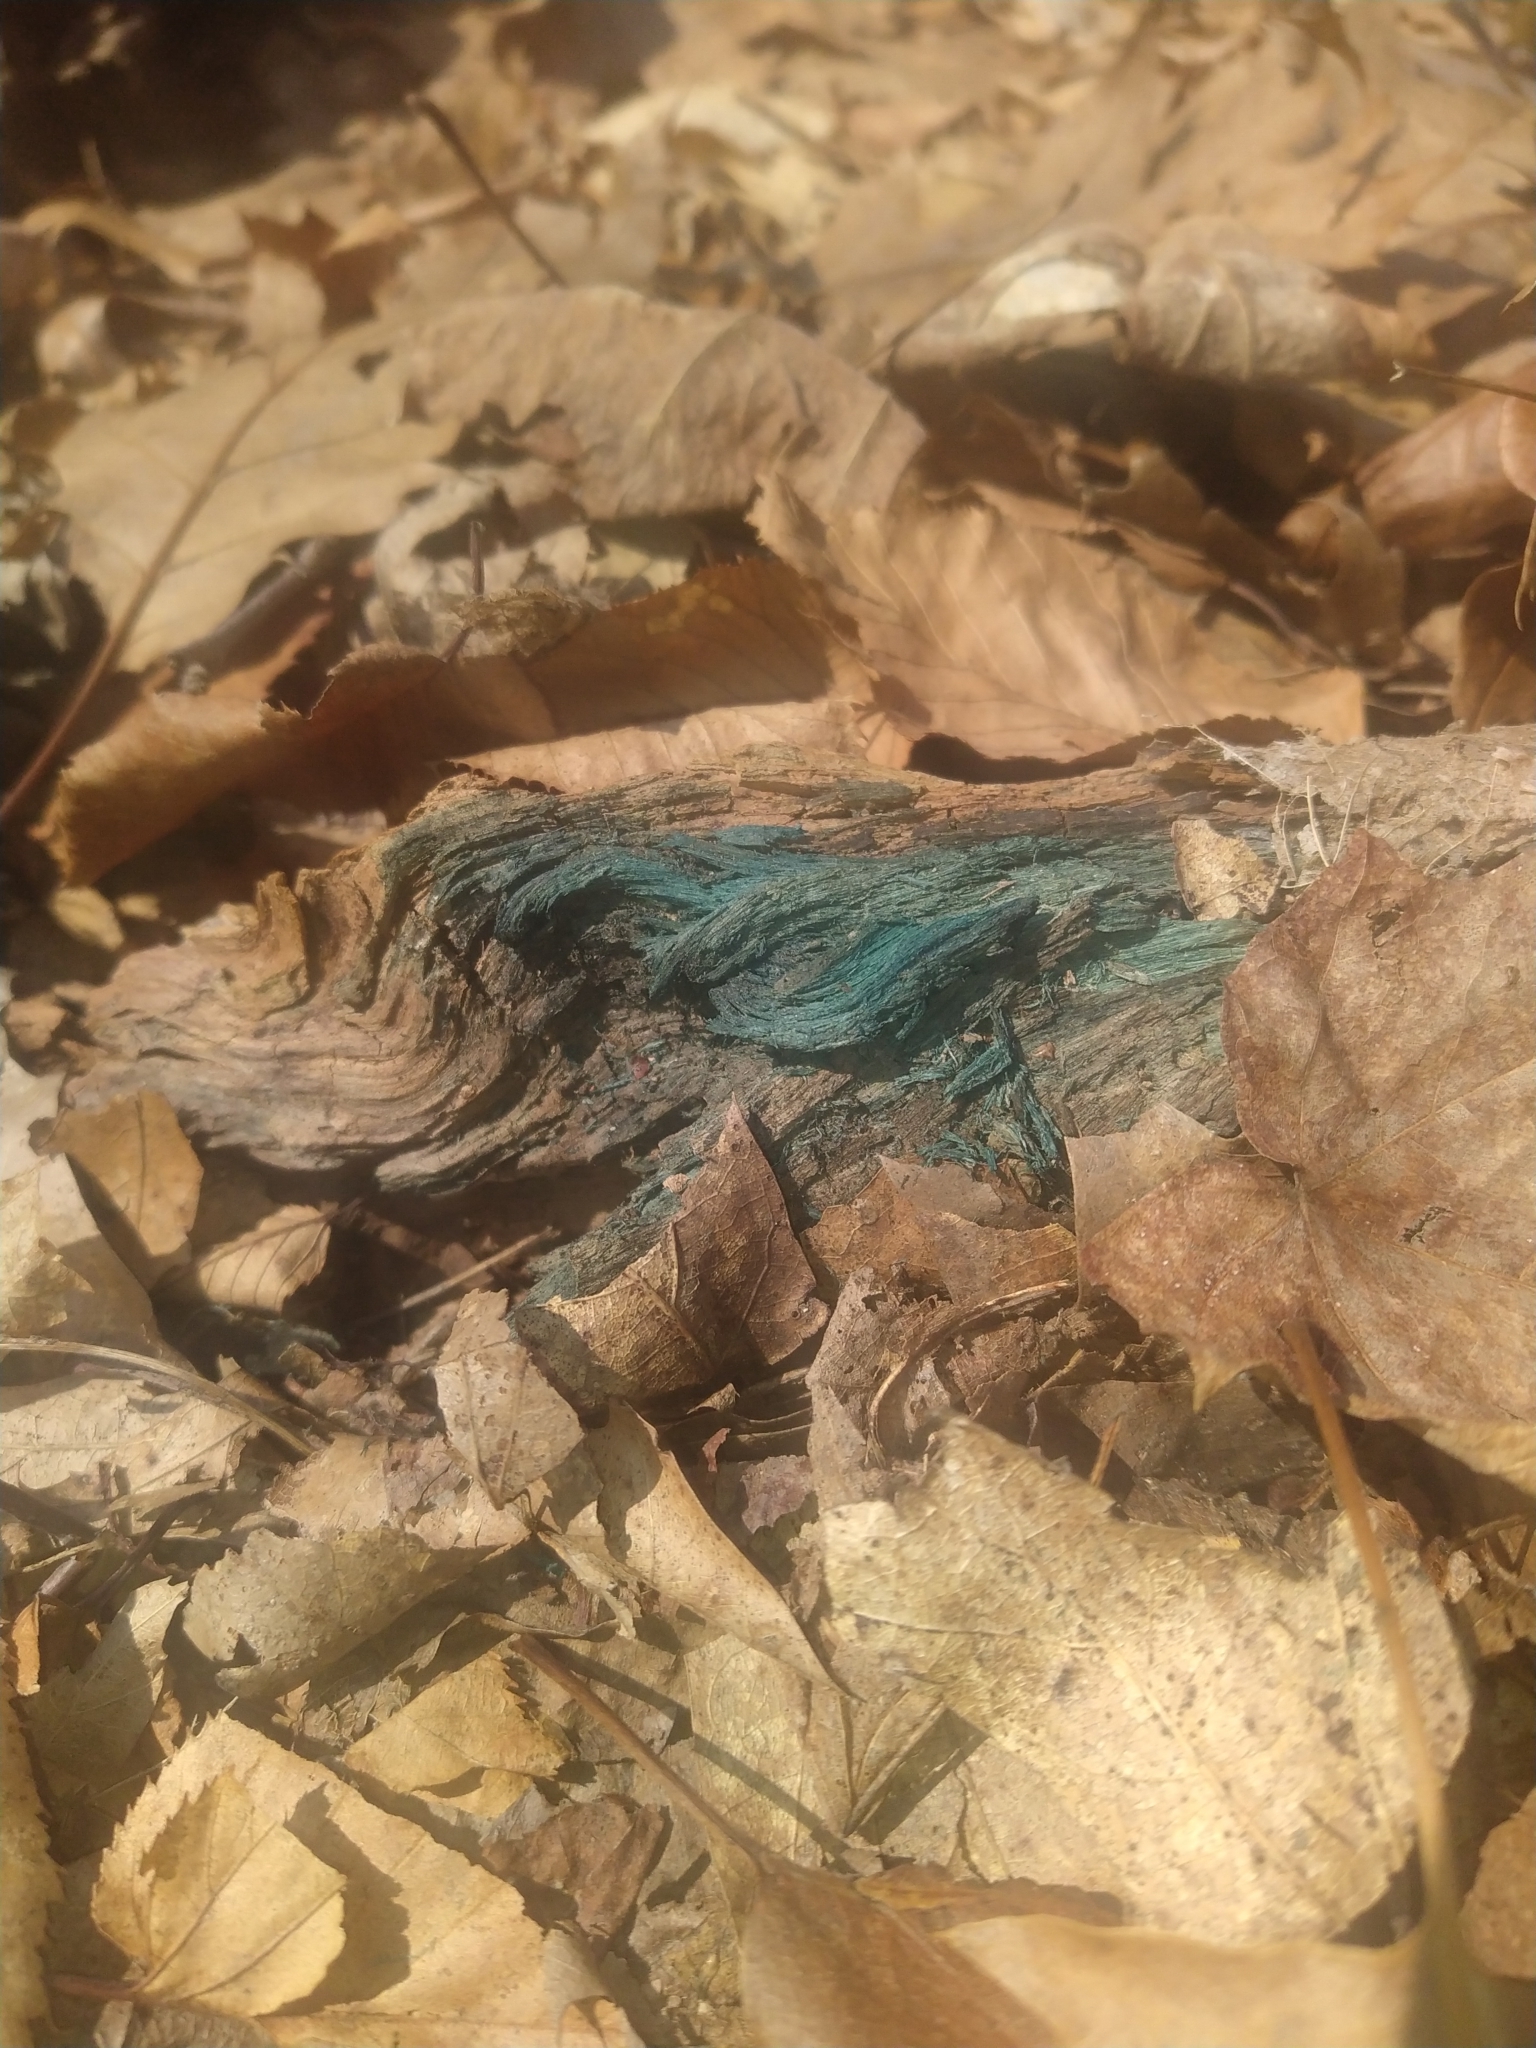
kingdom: Fungi
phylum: Ascomycota
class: Leotiomycetes
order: Helotiales
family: Chlorociboriaceae
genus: Chlorociboria
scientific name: Chlorociboria
